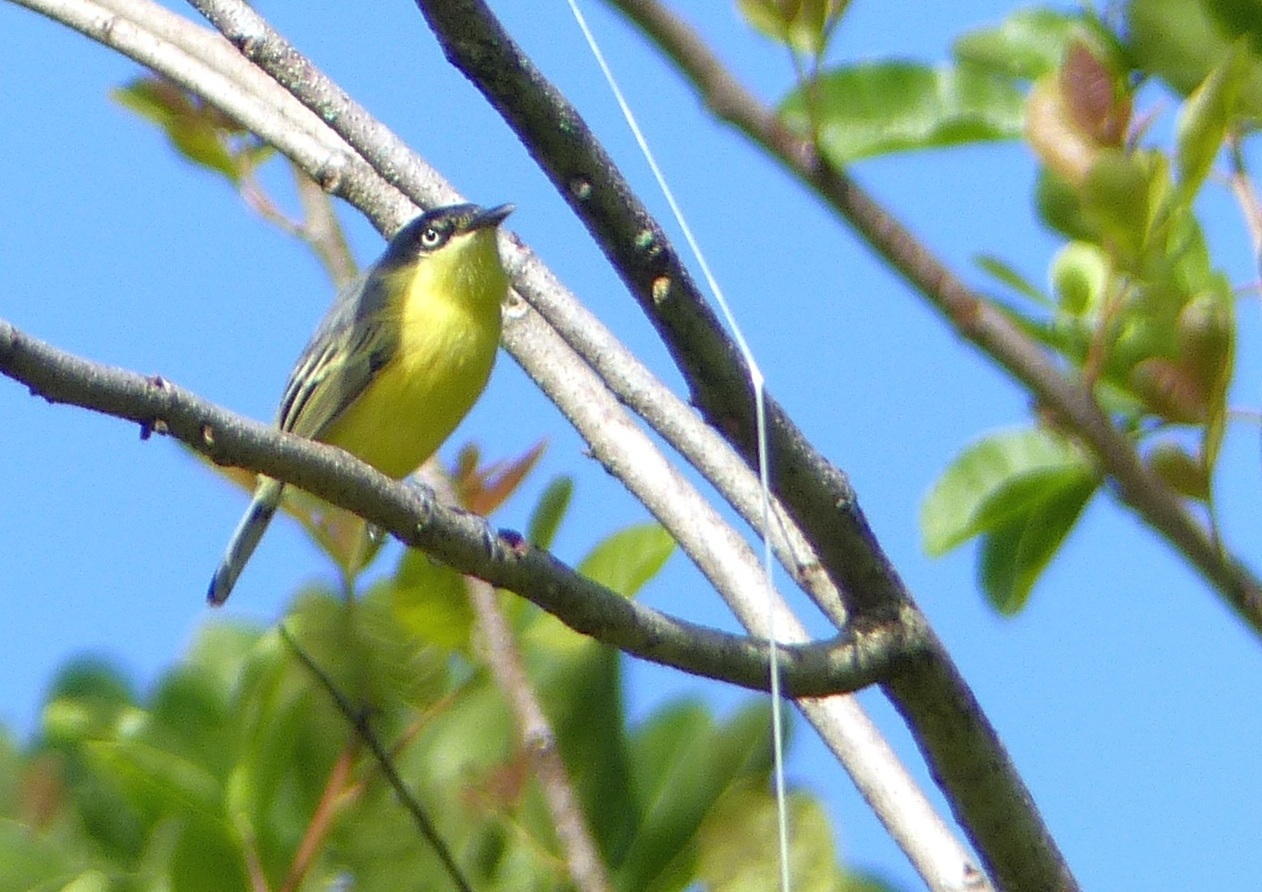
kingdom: Animalia
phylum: Chordata
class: Aves
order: Passeriformes
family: Tyrannidae
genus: Todirostrum
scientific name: Todirostrum cinereum
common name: Common tody-flycatcher
